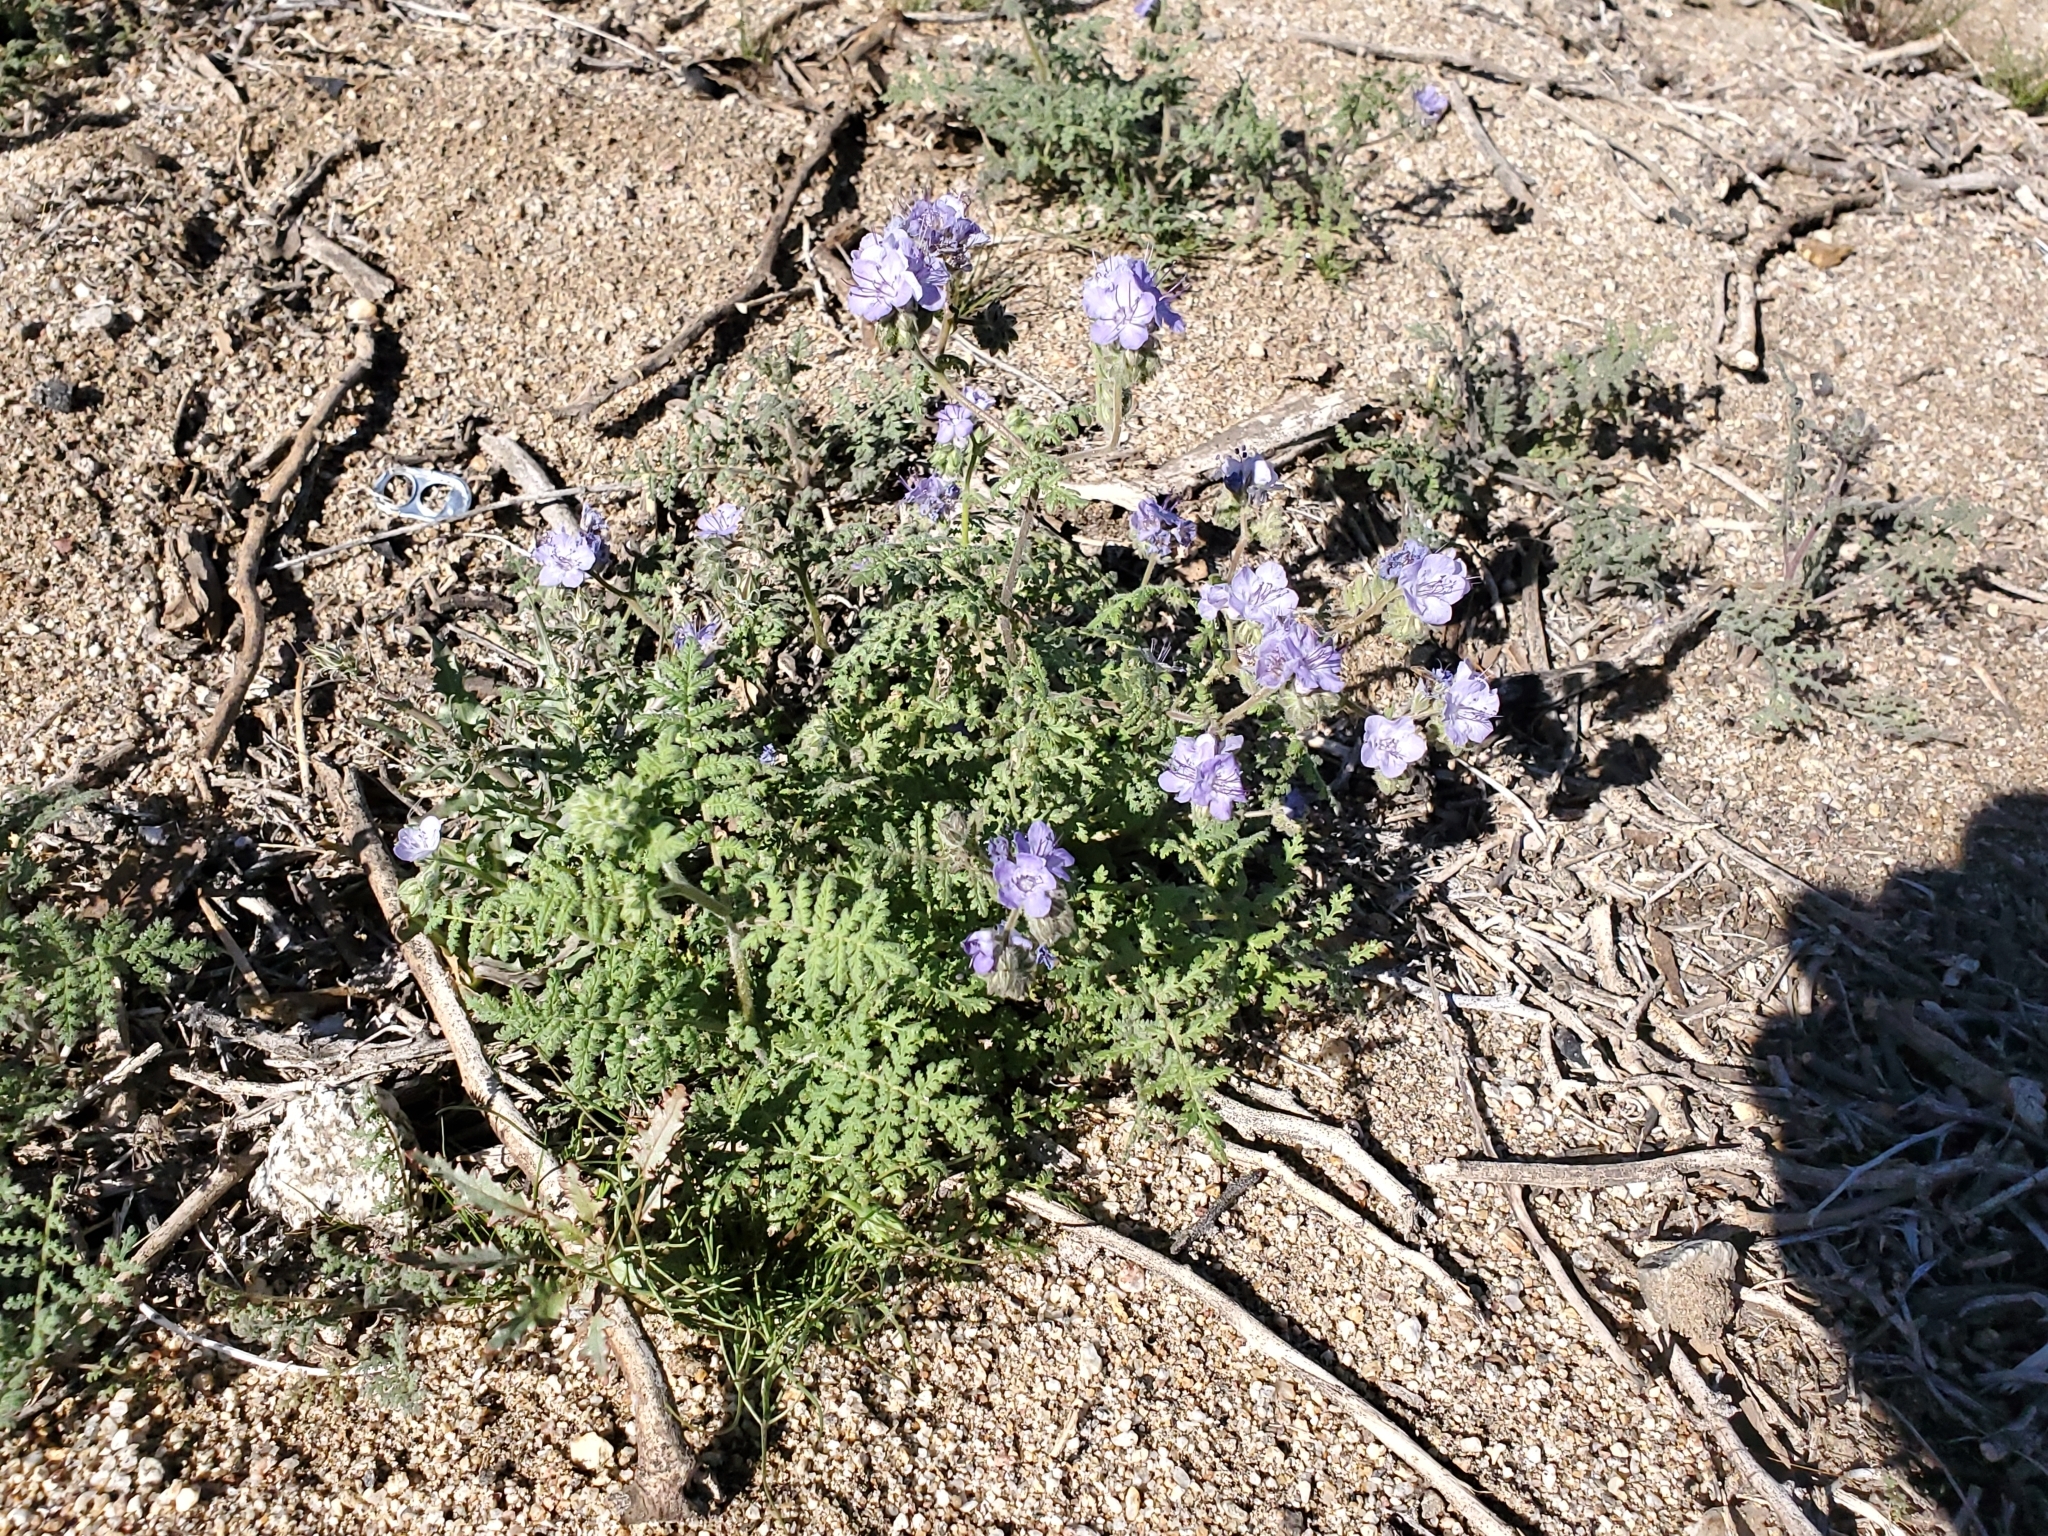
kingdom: Plantae
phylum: Tracheophyta
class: Magnoliopsida
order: Boraginales
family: Hydrophyllaceae
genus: Phacelia
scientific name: Phacelia distans
